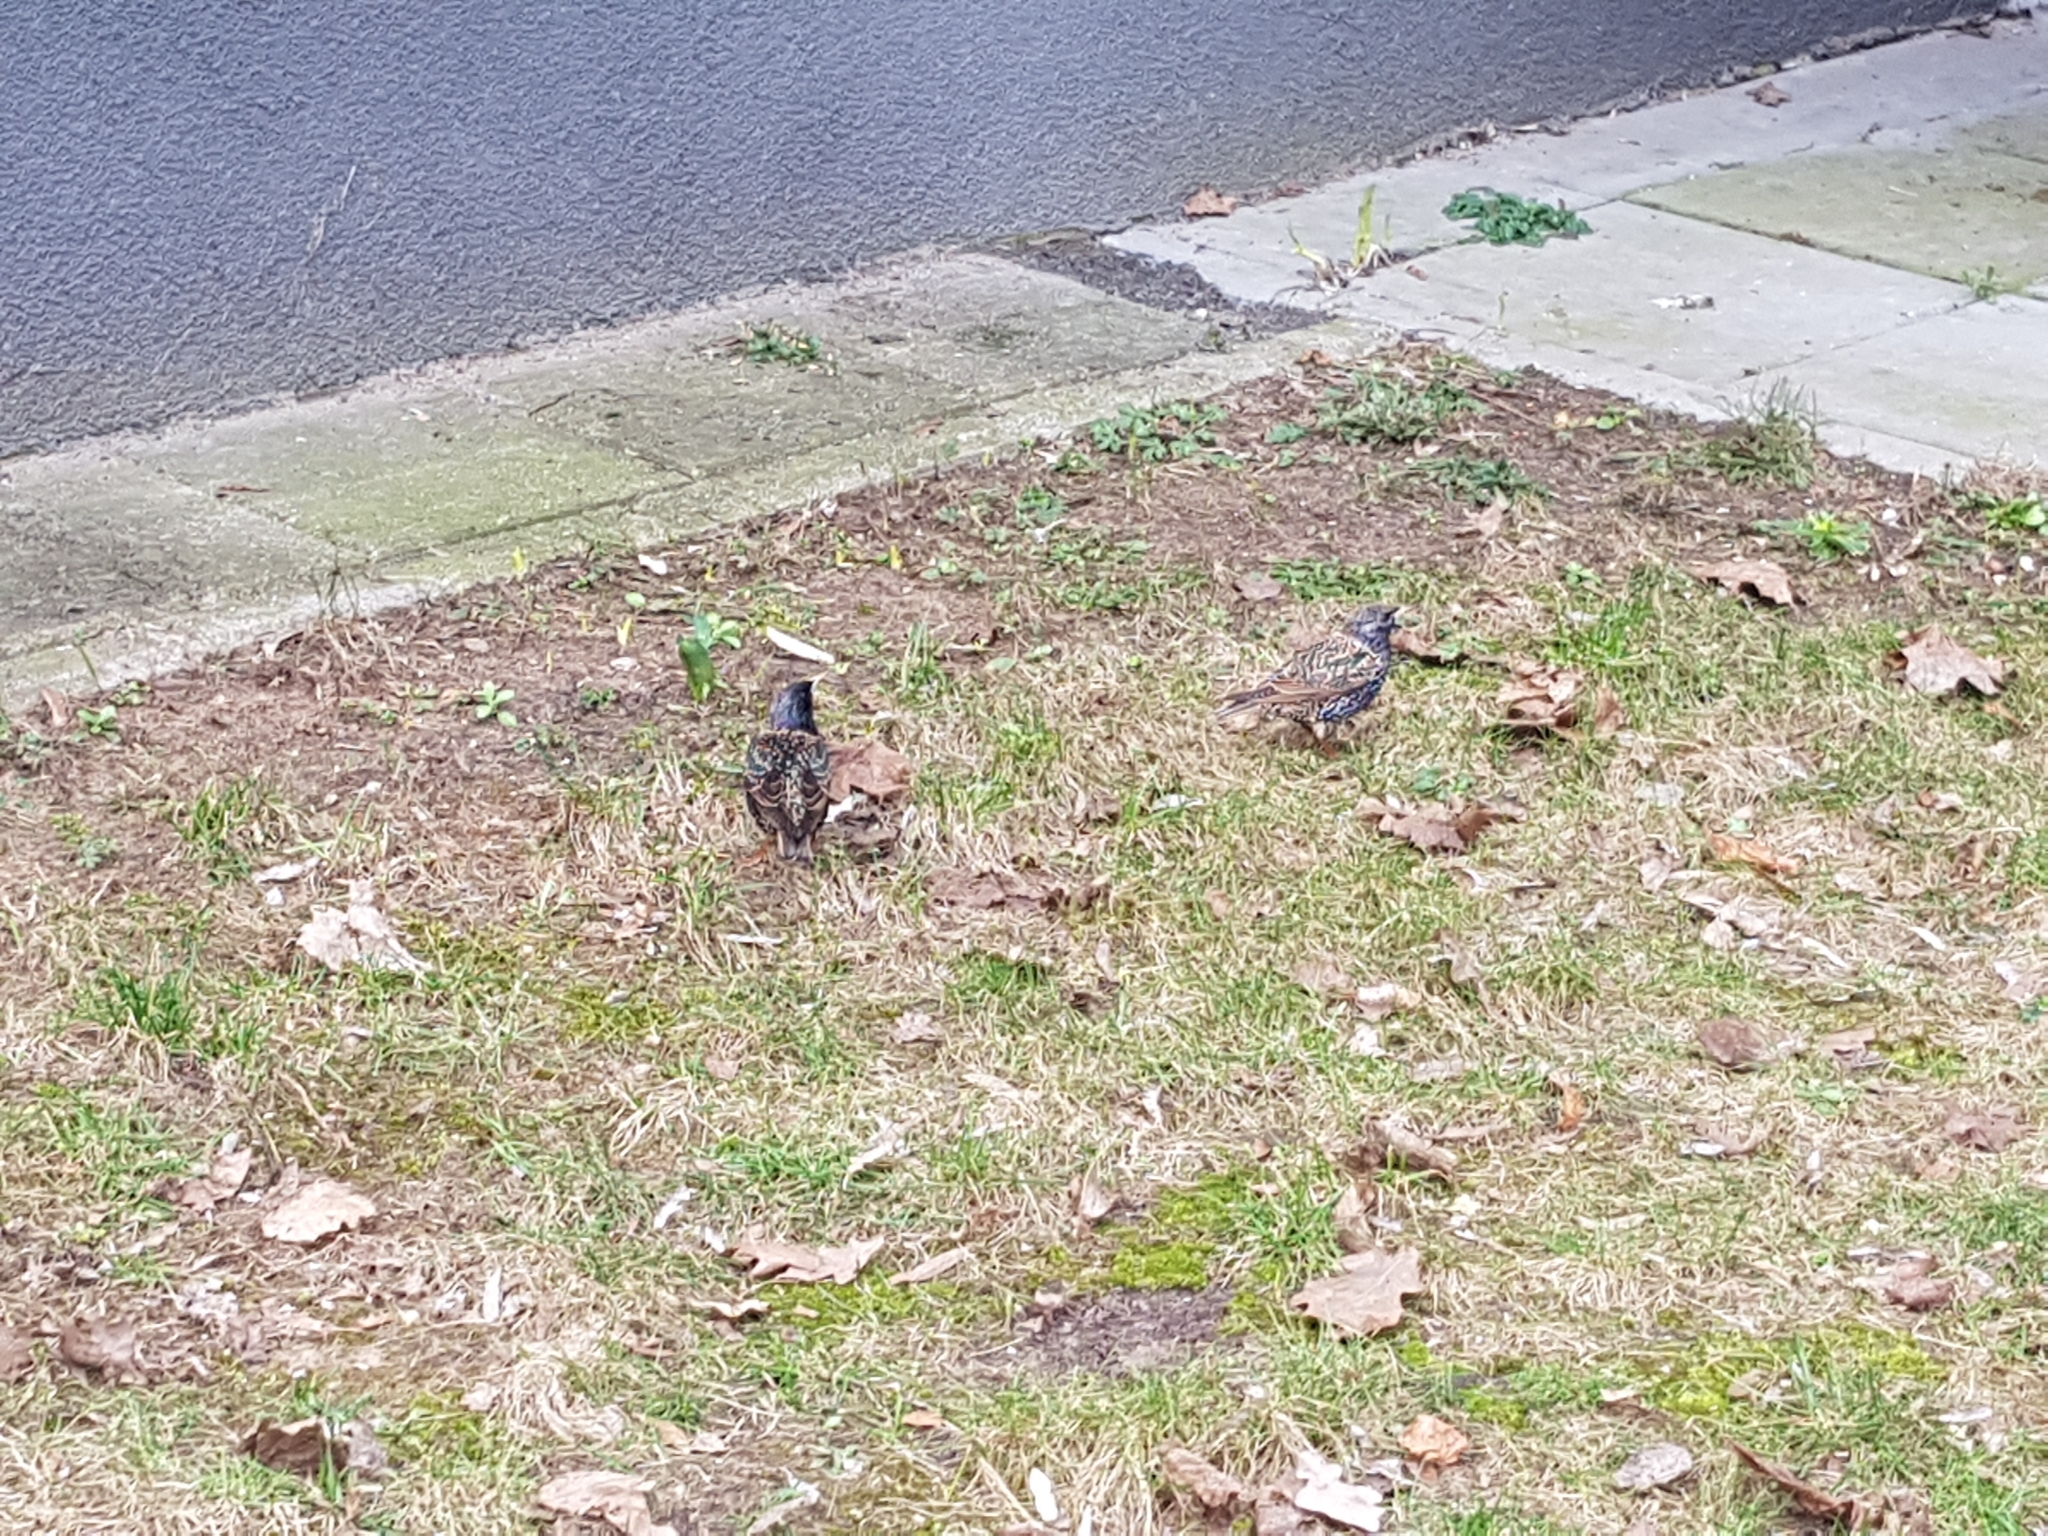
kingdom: Animalia
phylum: Chordata
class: Aves
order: Passeriformes
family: Sturnidae
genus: Sturnus
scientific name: Sturnus vulgaris
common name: Common starling
